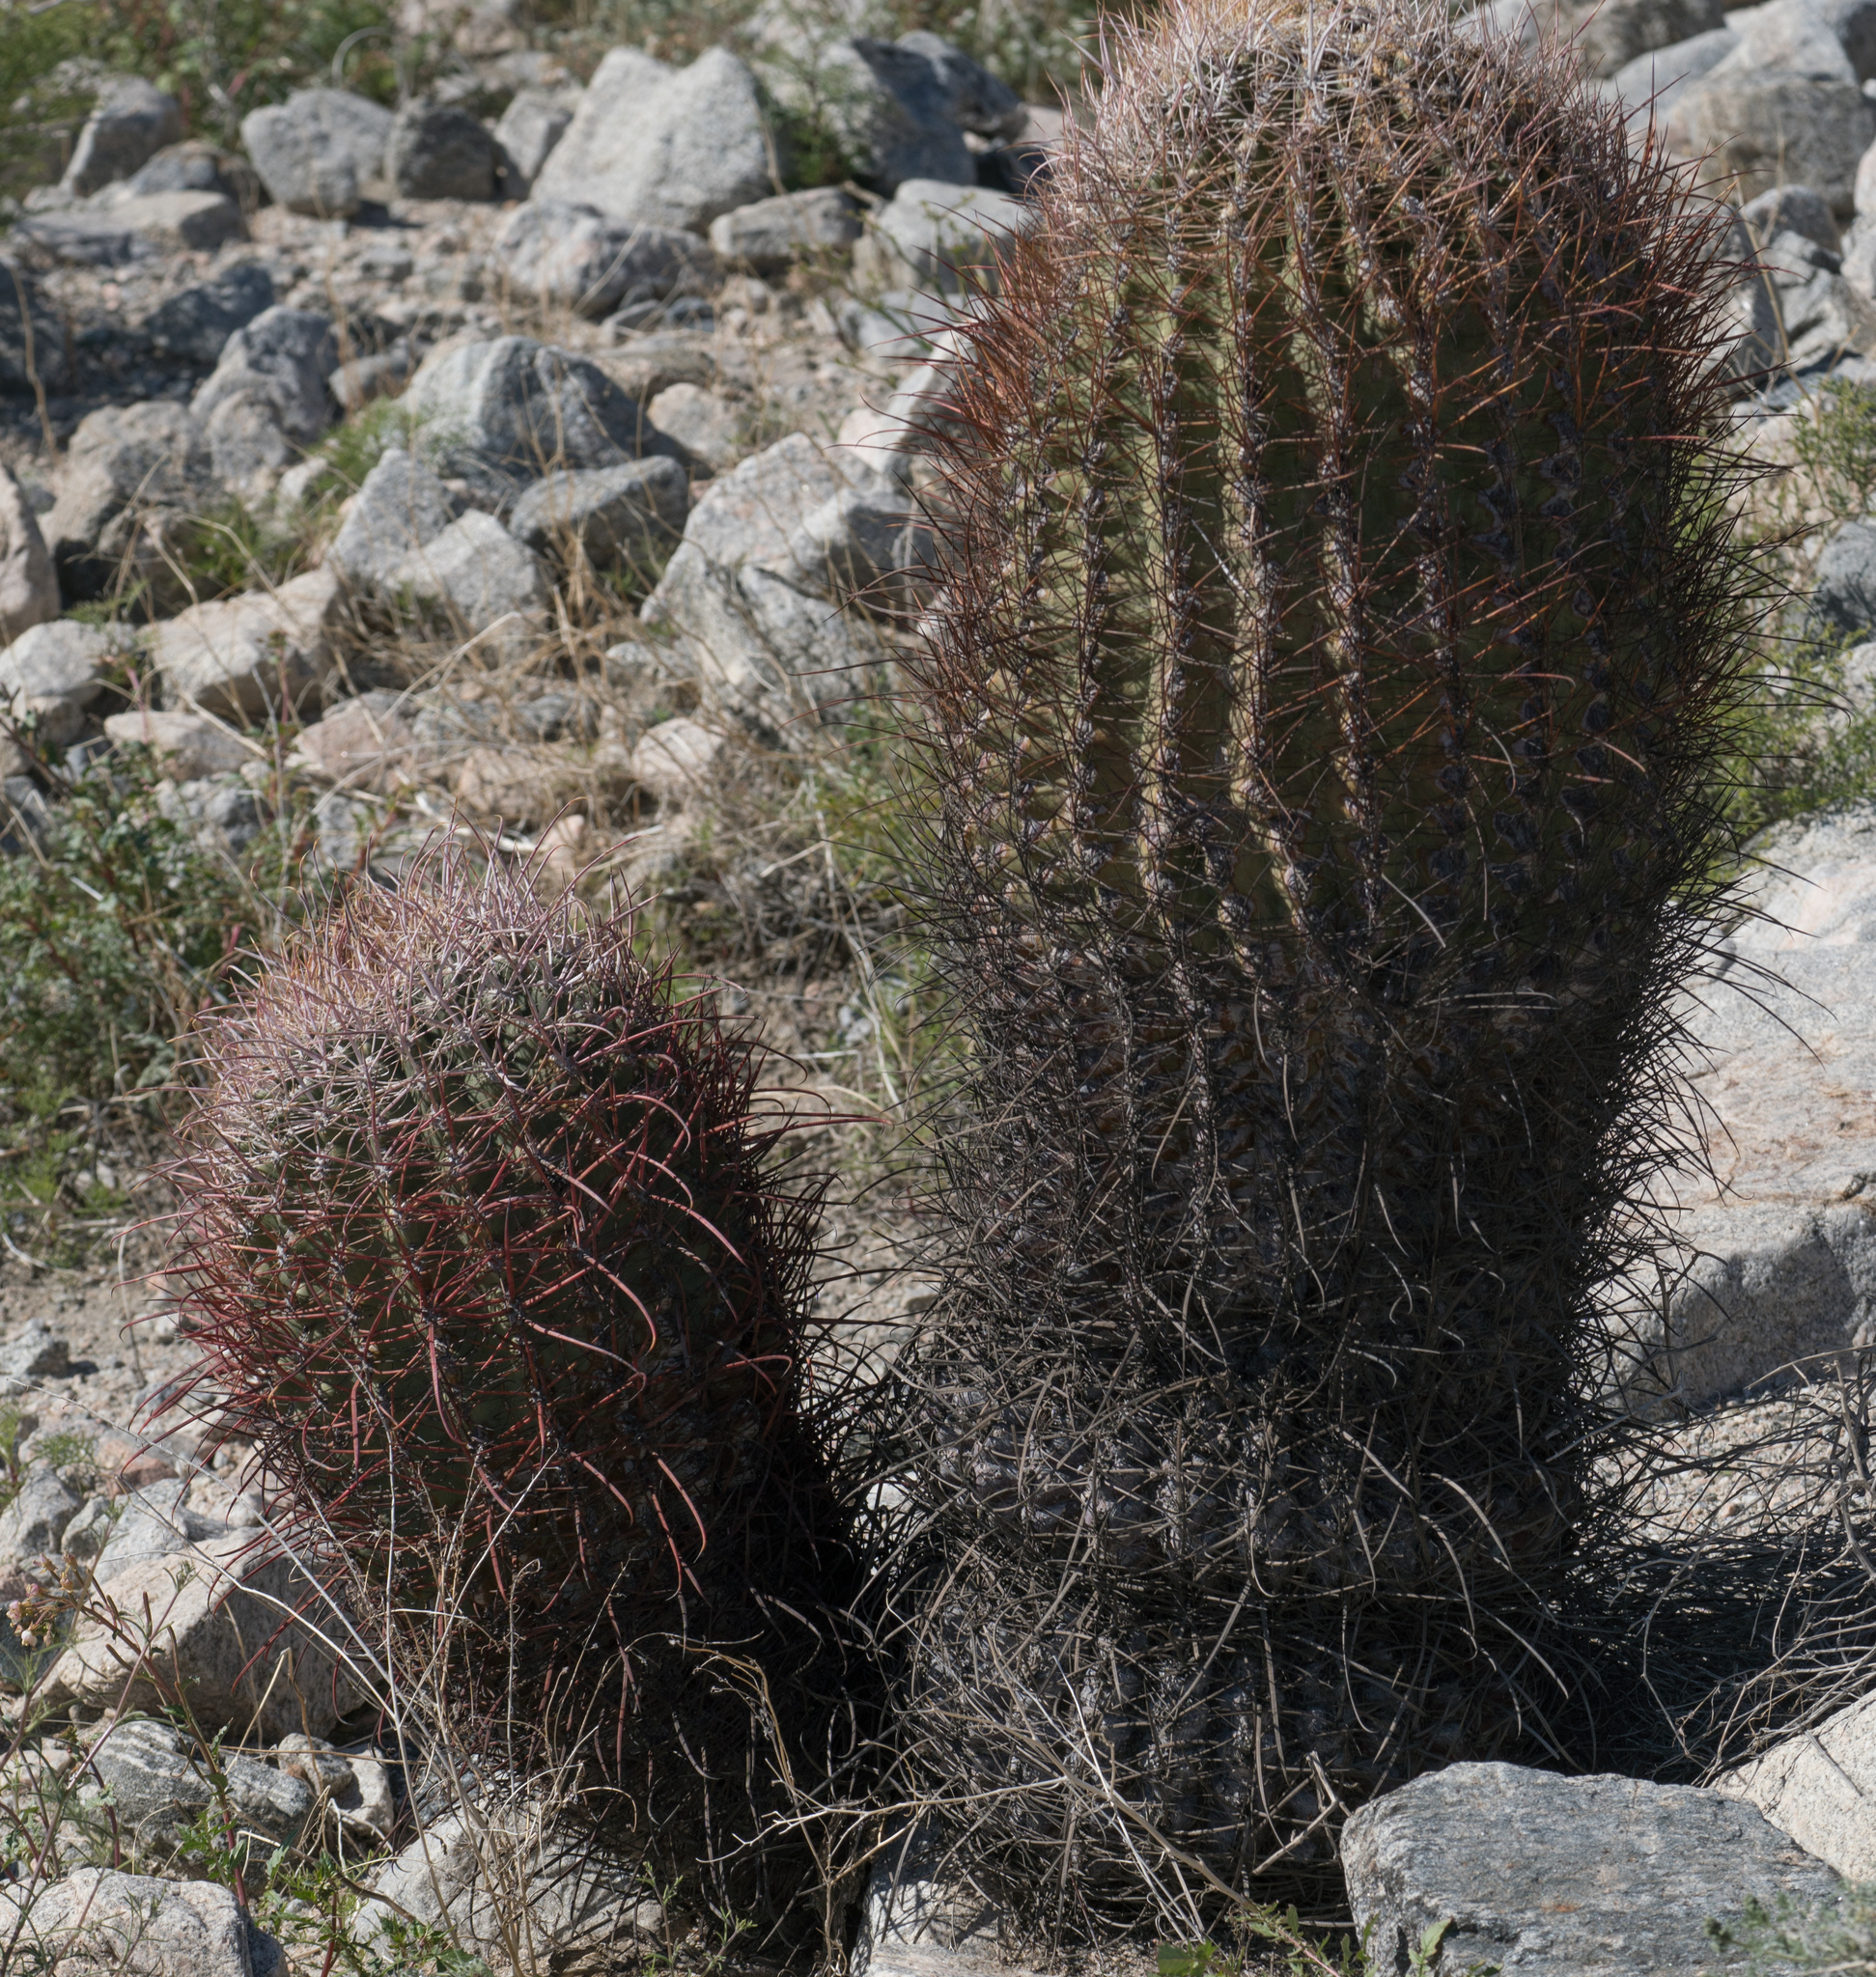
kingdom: Plantae
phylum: Tracheophyta
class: Magnoliopsida
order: Caryophyllales
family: Cactaceae
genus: Ferocactus
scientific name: Ferocactus cylindraceus
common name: California barrel cactus
